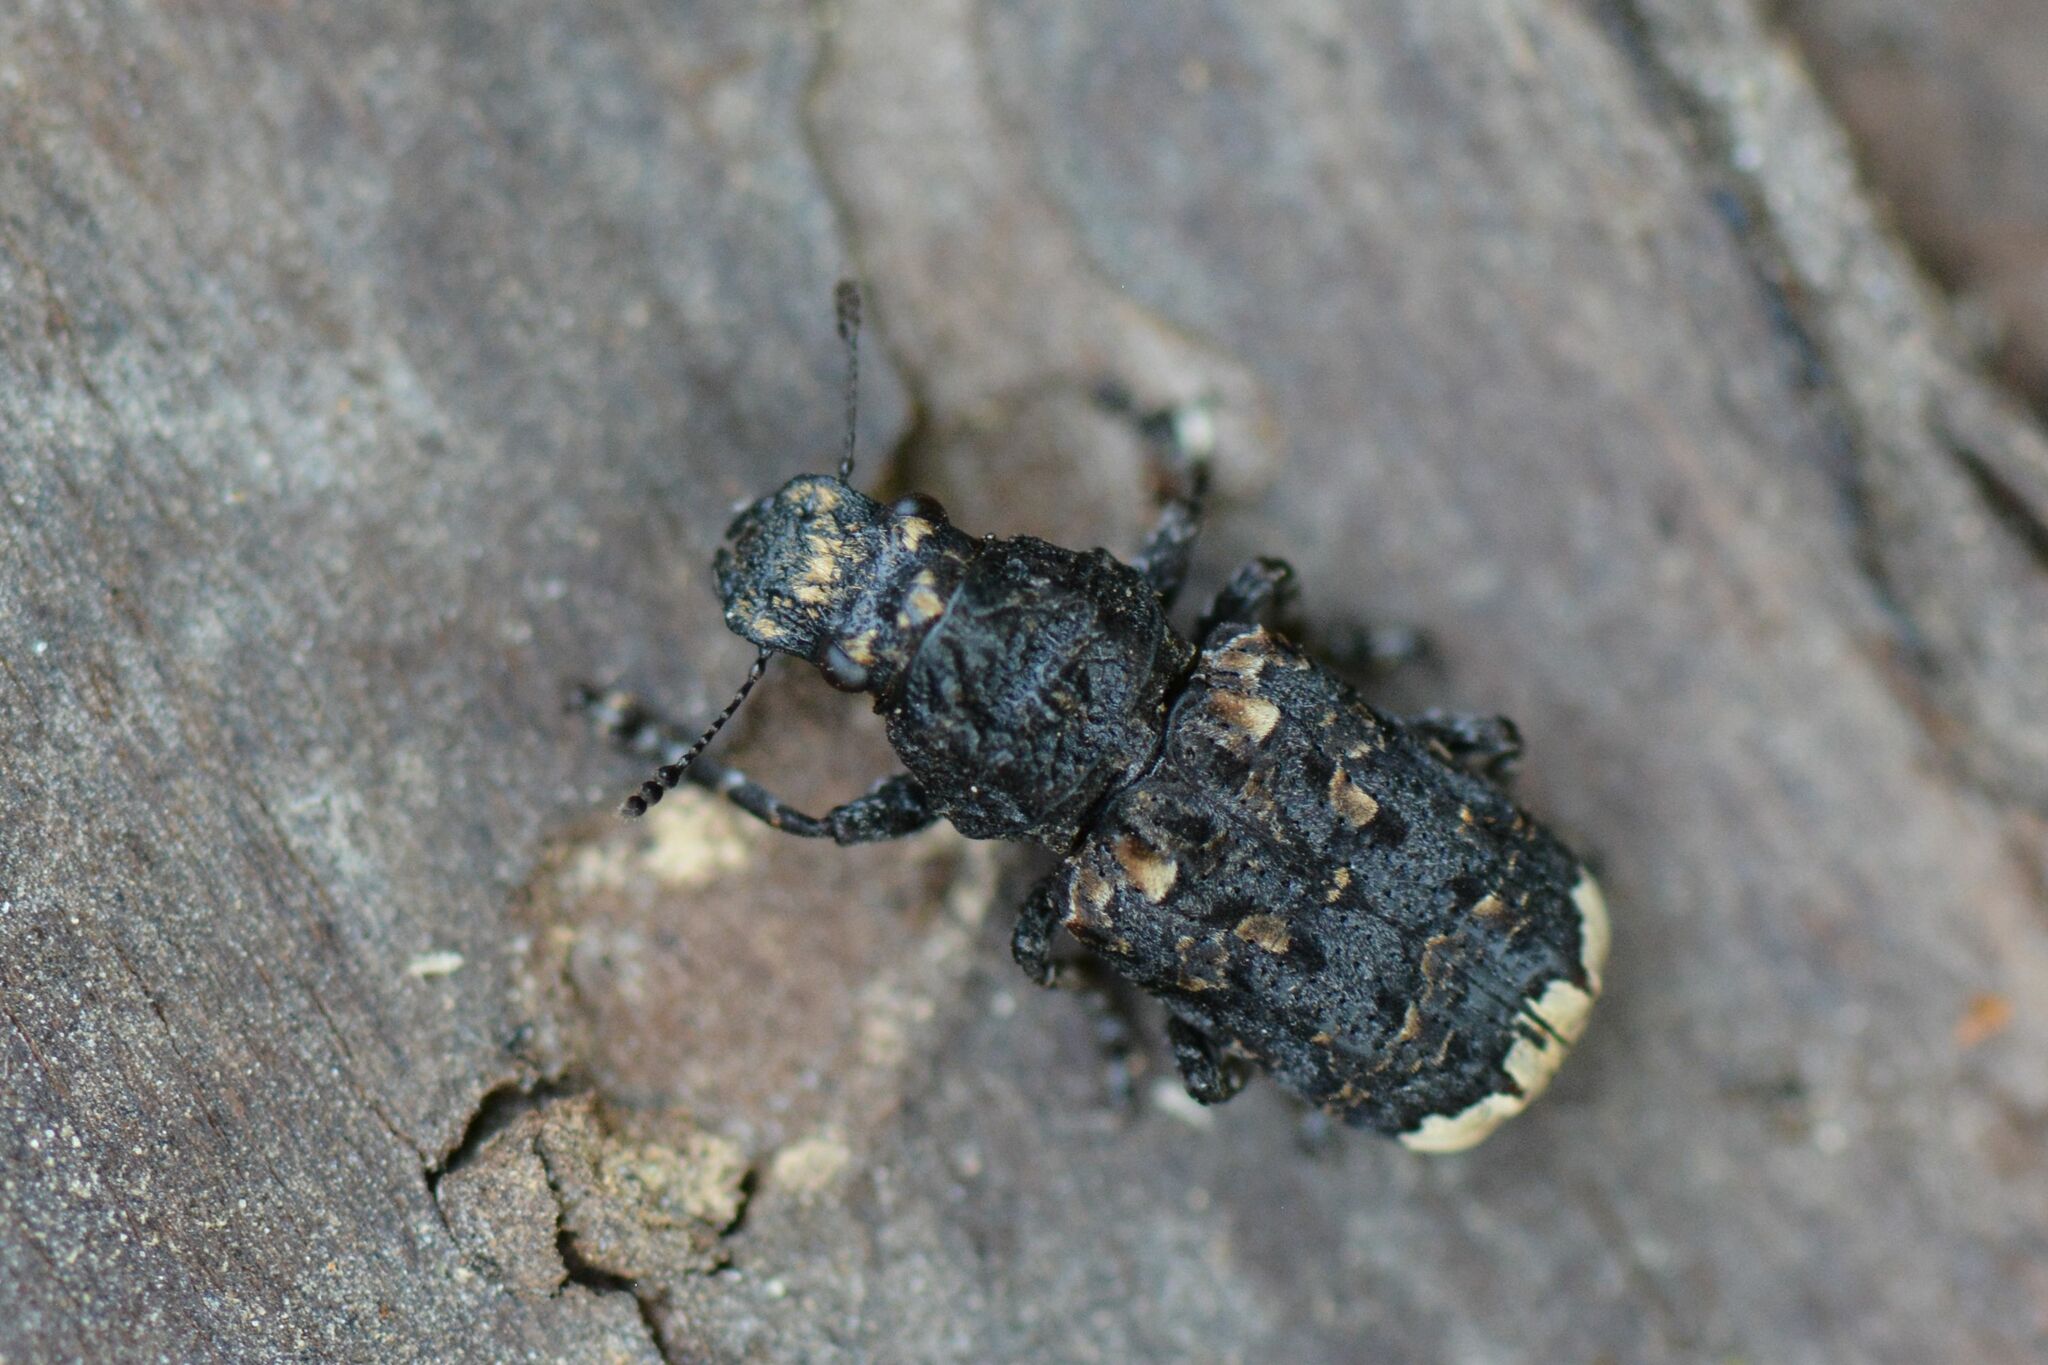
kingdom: Animalia
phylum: Arthropoda
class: Insecta
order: Coleoptera
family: Anthribidae
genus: Platyrhinus
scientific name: Platyrhinus resinosus
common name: Cramp-ball fungus weevil
